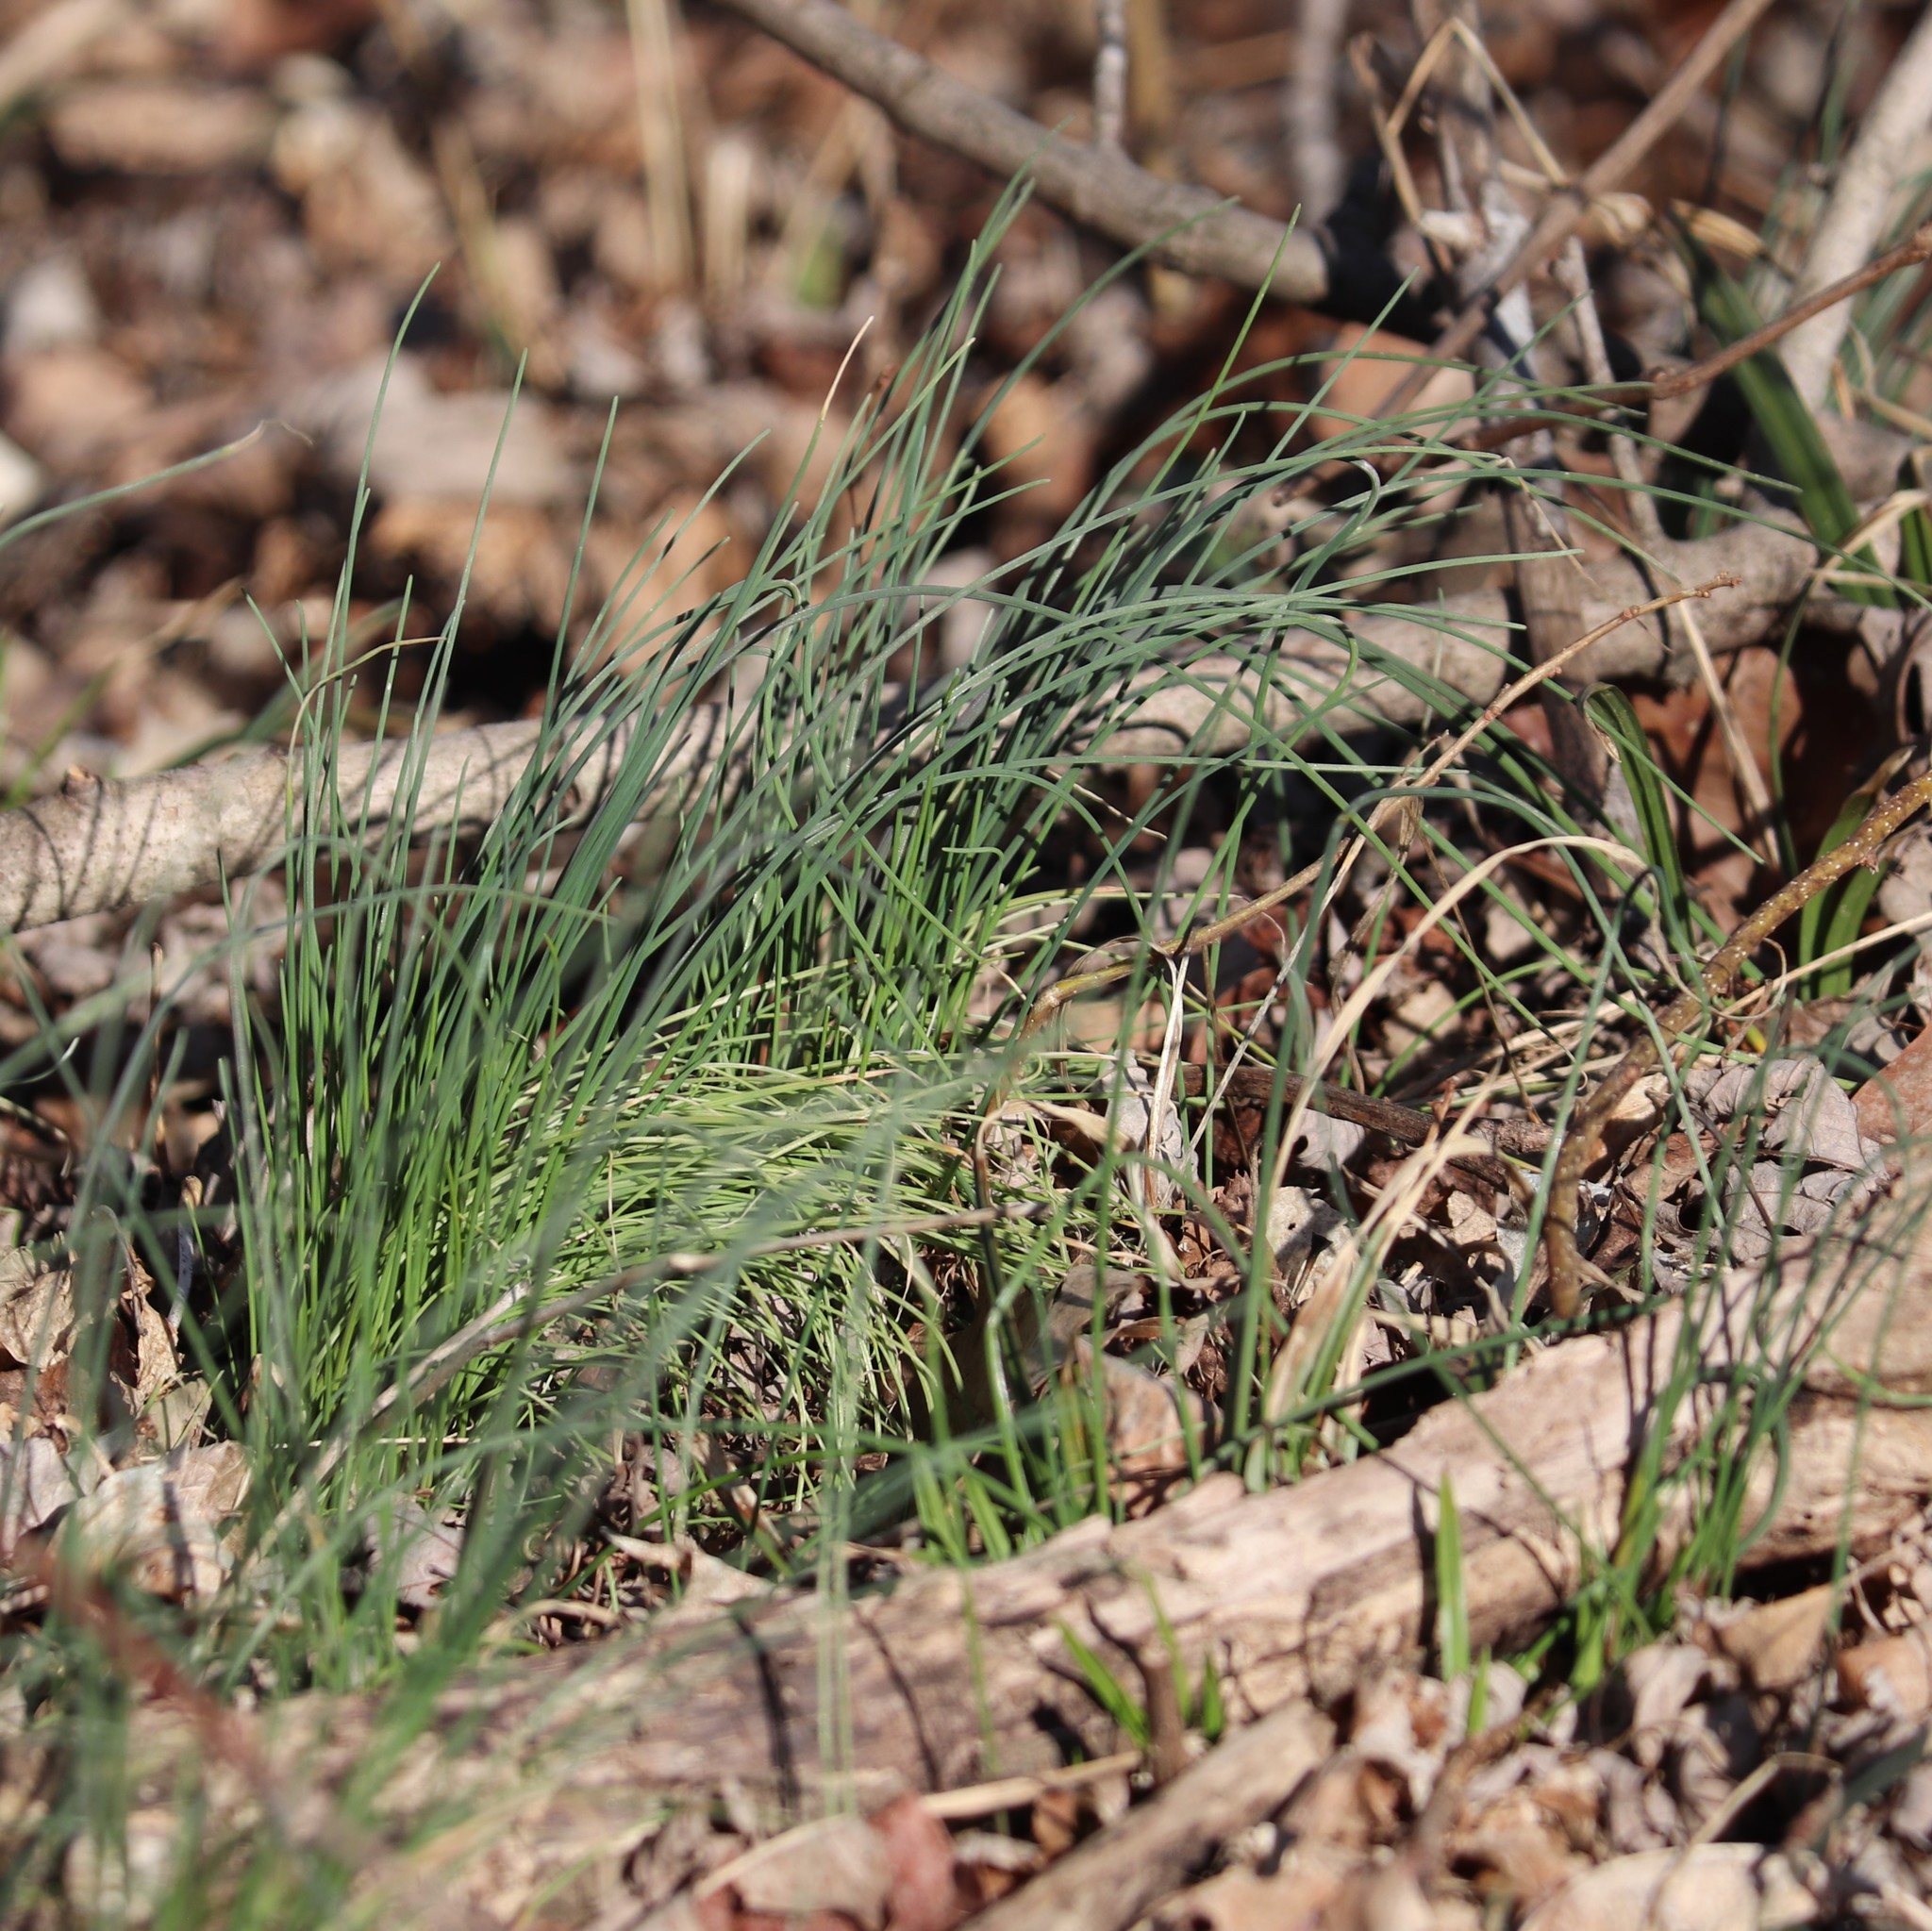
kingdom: Plantae
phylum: Tracheophyta
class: Liliopsida
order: Asparagales
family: Amaryllidaceae
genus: Allium
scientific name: Allium vineale
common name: Crow garlic
